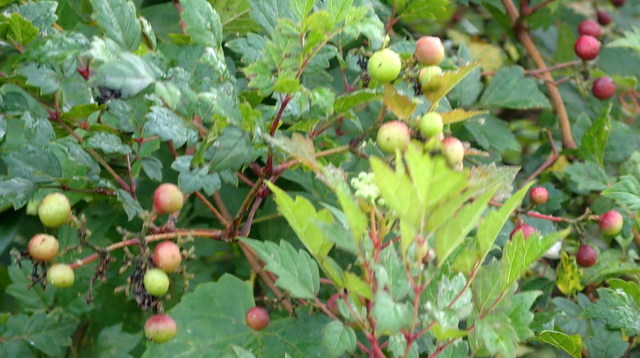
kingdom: Plantae
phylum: Tracheophyta
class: Magnoliopsida
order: Vitales
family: Vitaceae
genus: Nekemias
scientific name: Nekemias arborea
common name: Peppervine
